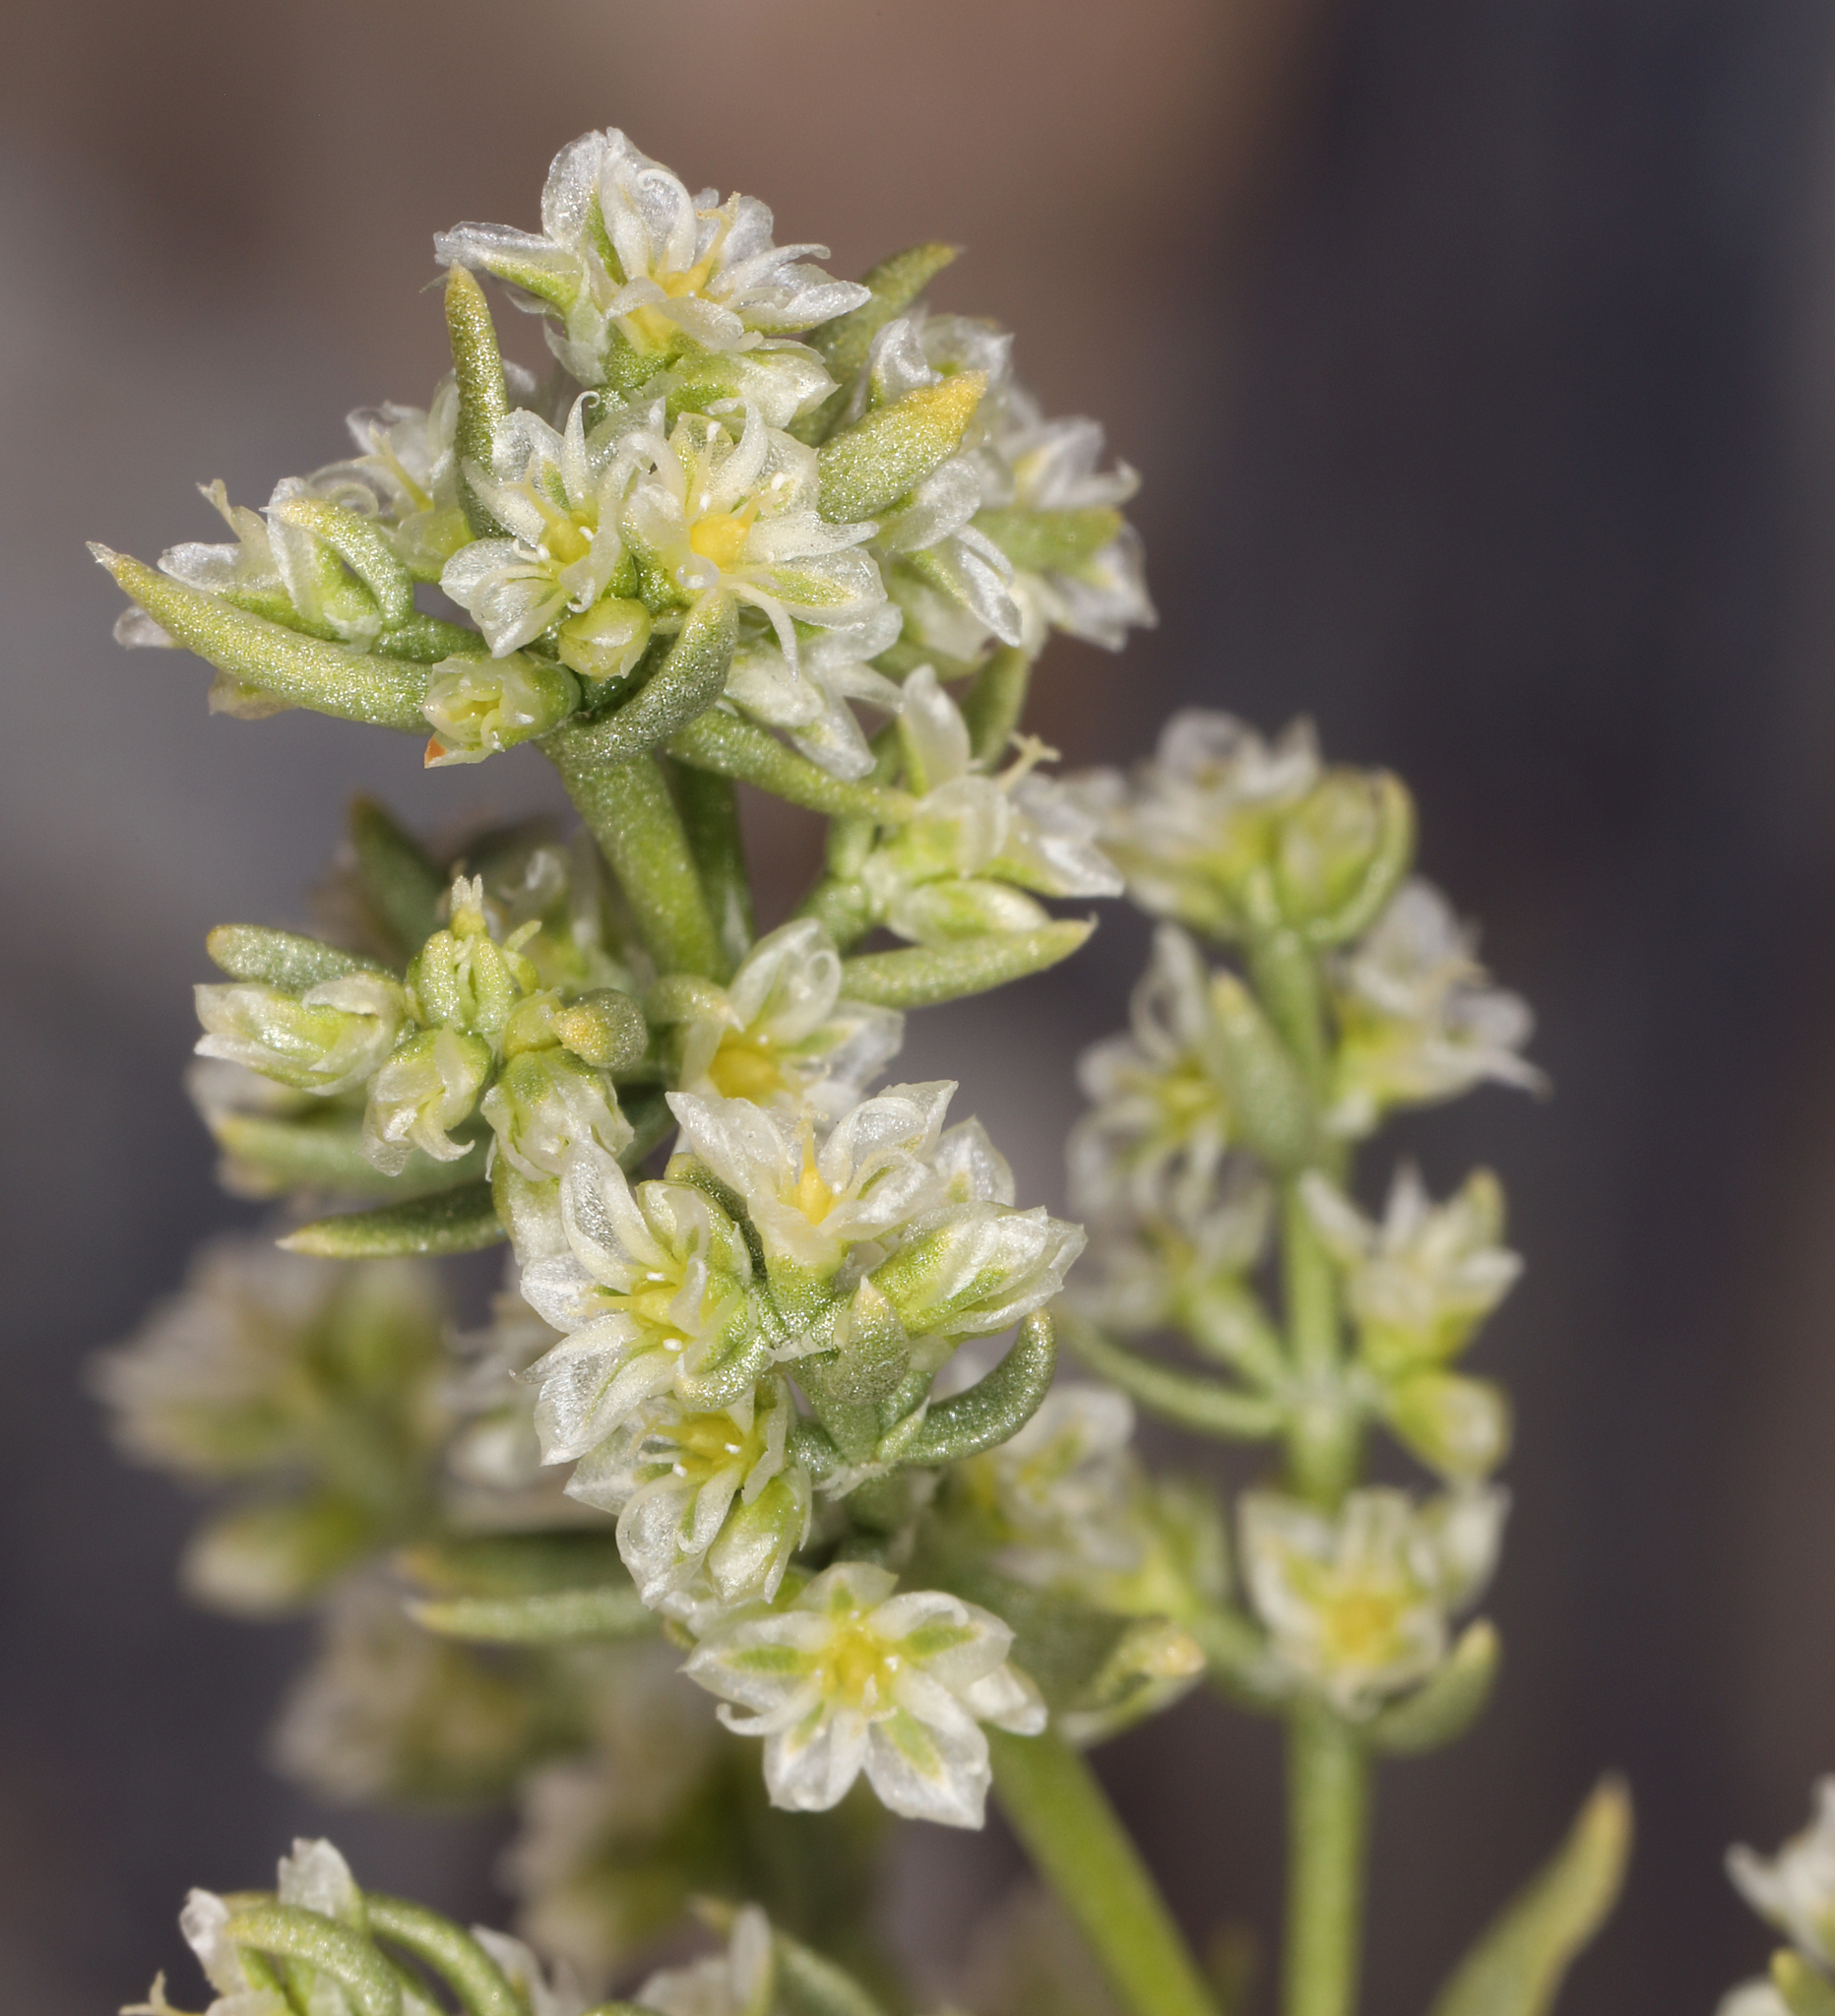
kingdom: Plantae
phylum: Tracheophyta
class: Magnoliopsida
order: Caryophyllales
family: Caryophyllaceae
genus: Scopulophila
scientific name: Scopulophila rixfordii
